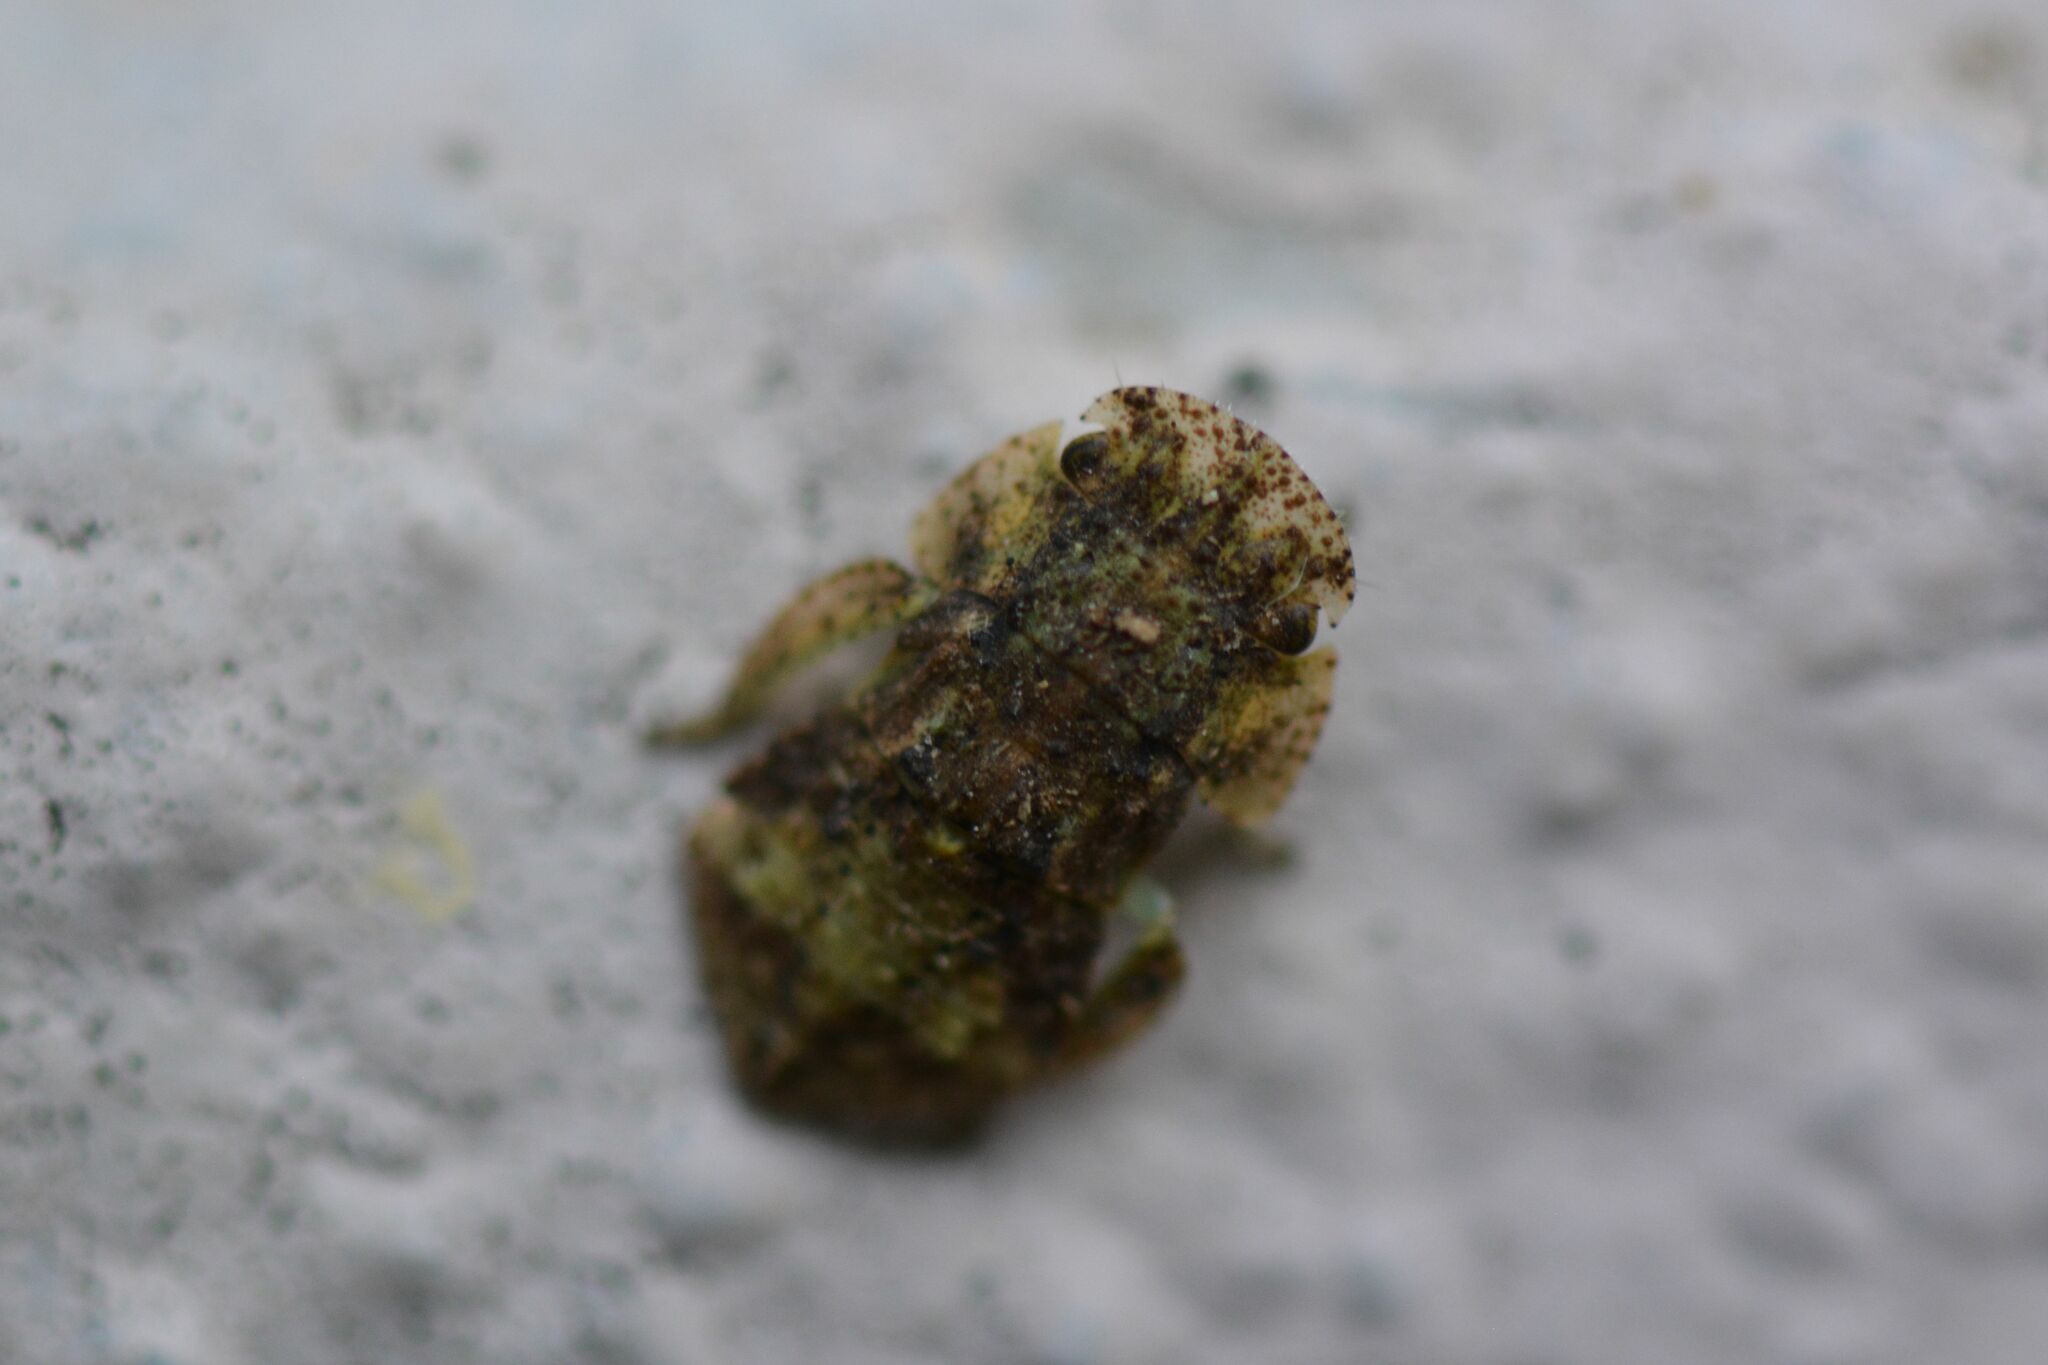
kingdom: Animalia
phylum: Arthropoda
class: Insecta
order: Hemiptera
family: Cicadellidae
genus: Ledra
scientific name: Ledra aurita
